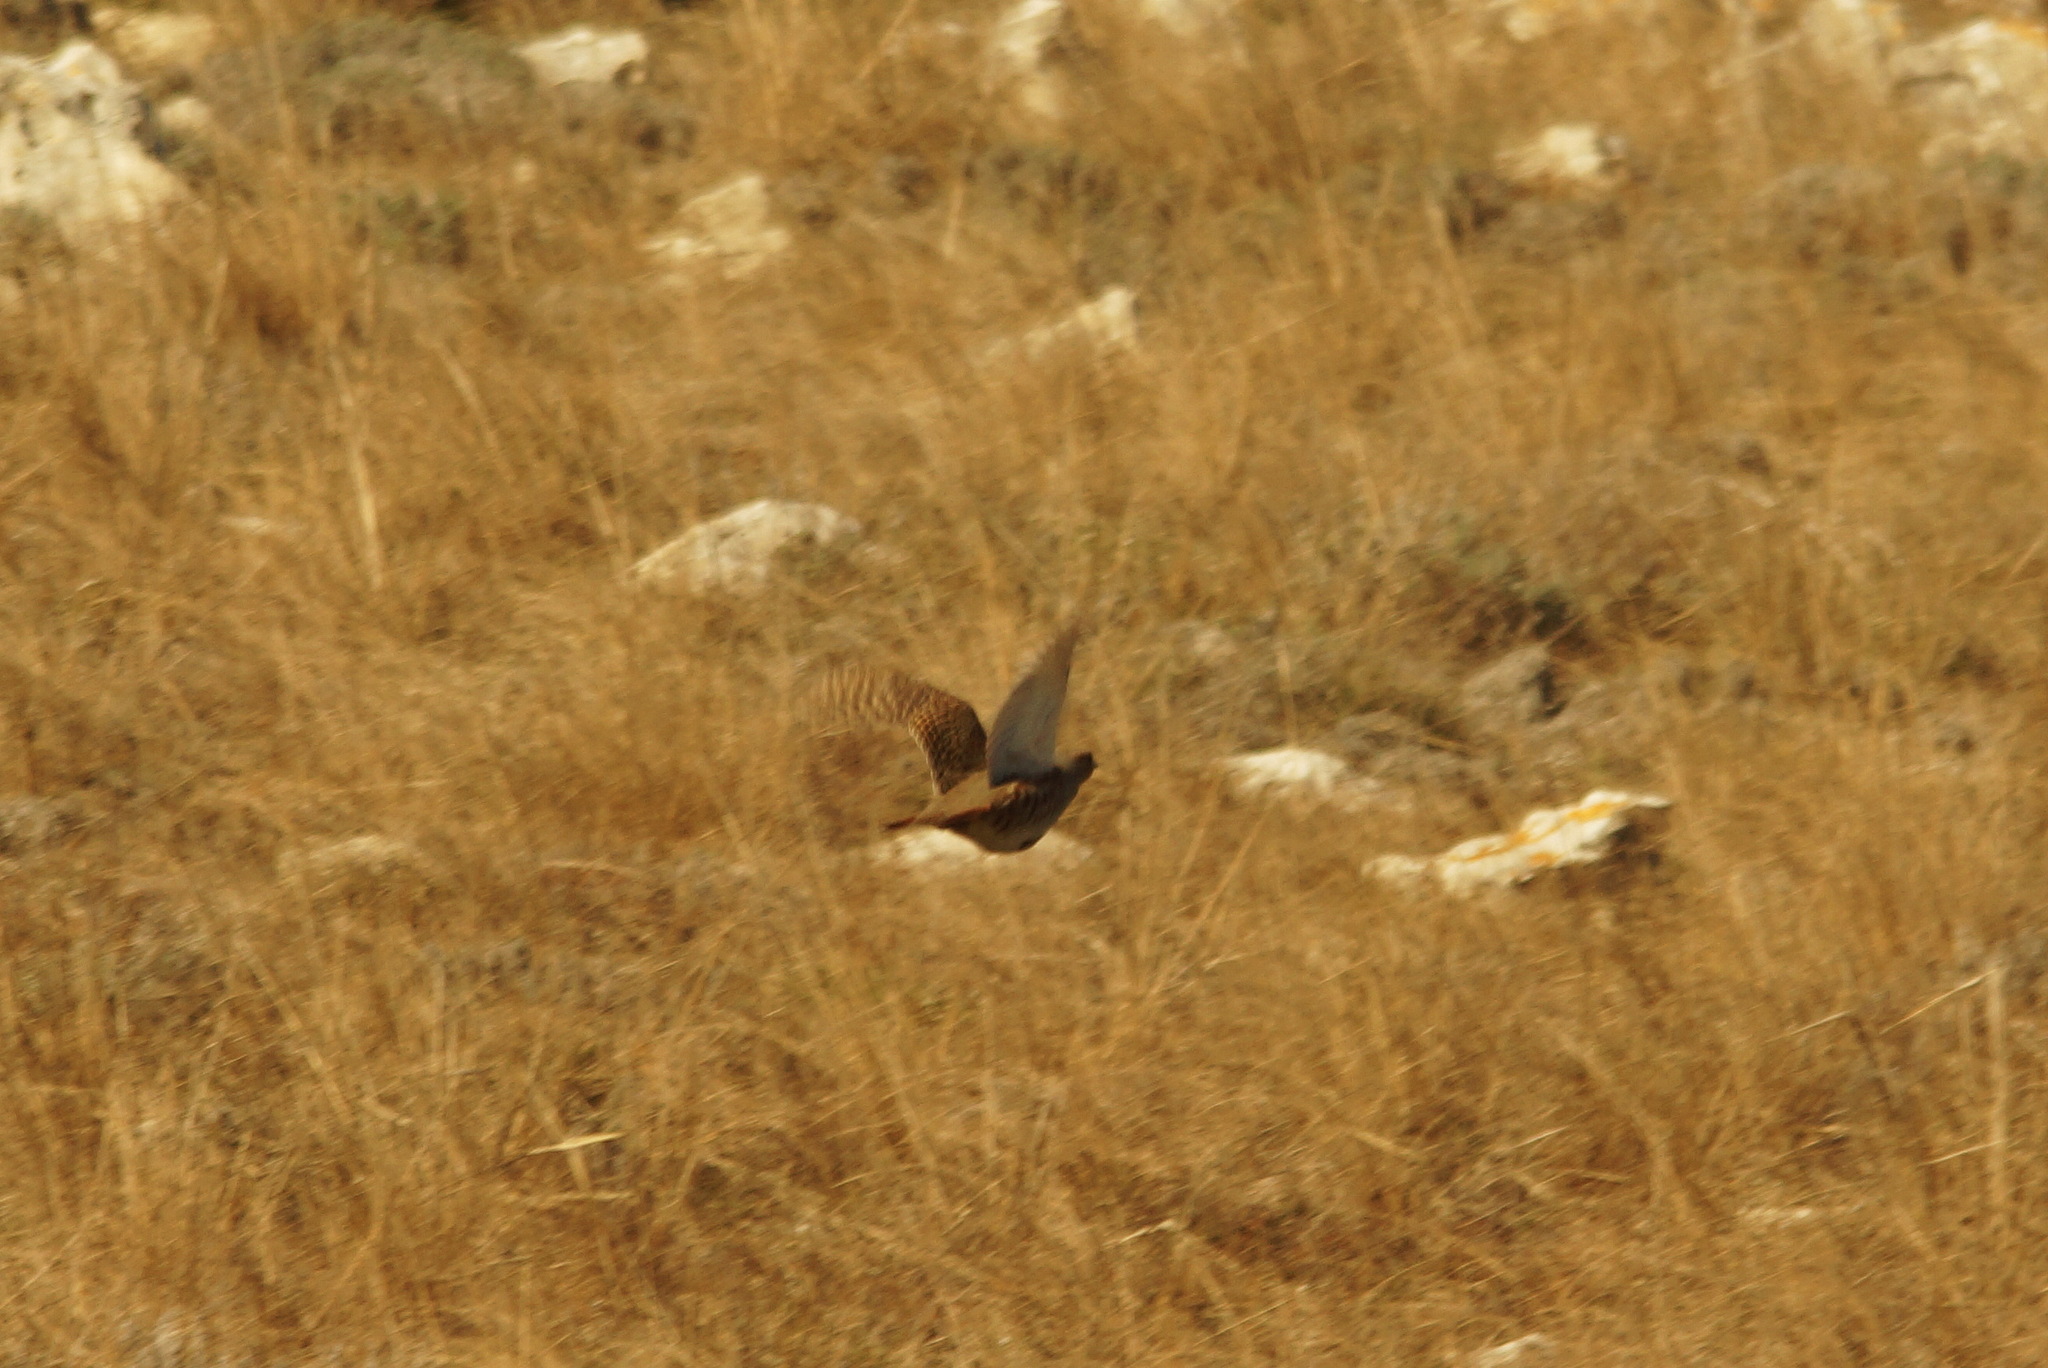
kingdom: Animalia
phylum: Chordata
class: Aves
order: Galliformes
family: Phasianidae
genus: Perdix
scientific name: Perdix perdix
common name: Grey partridge
